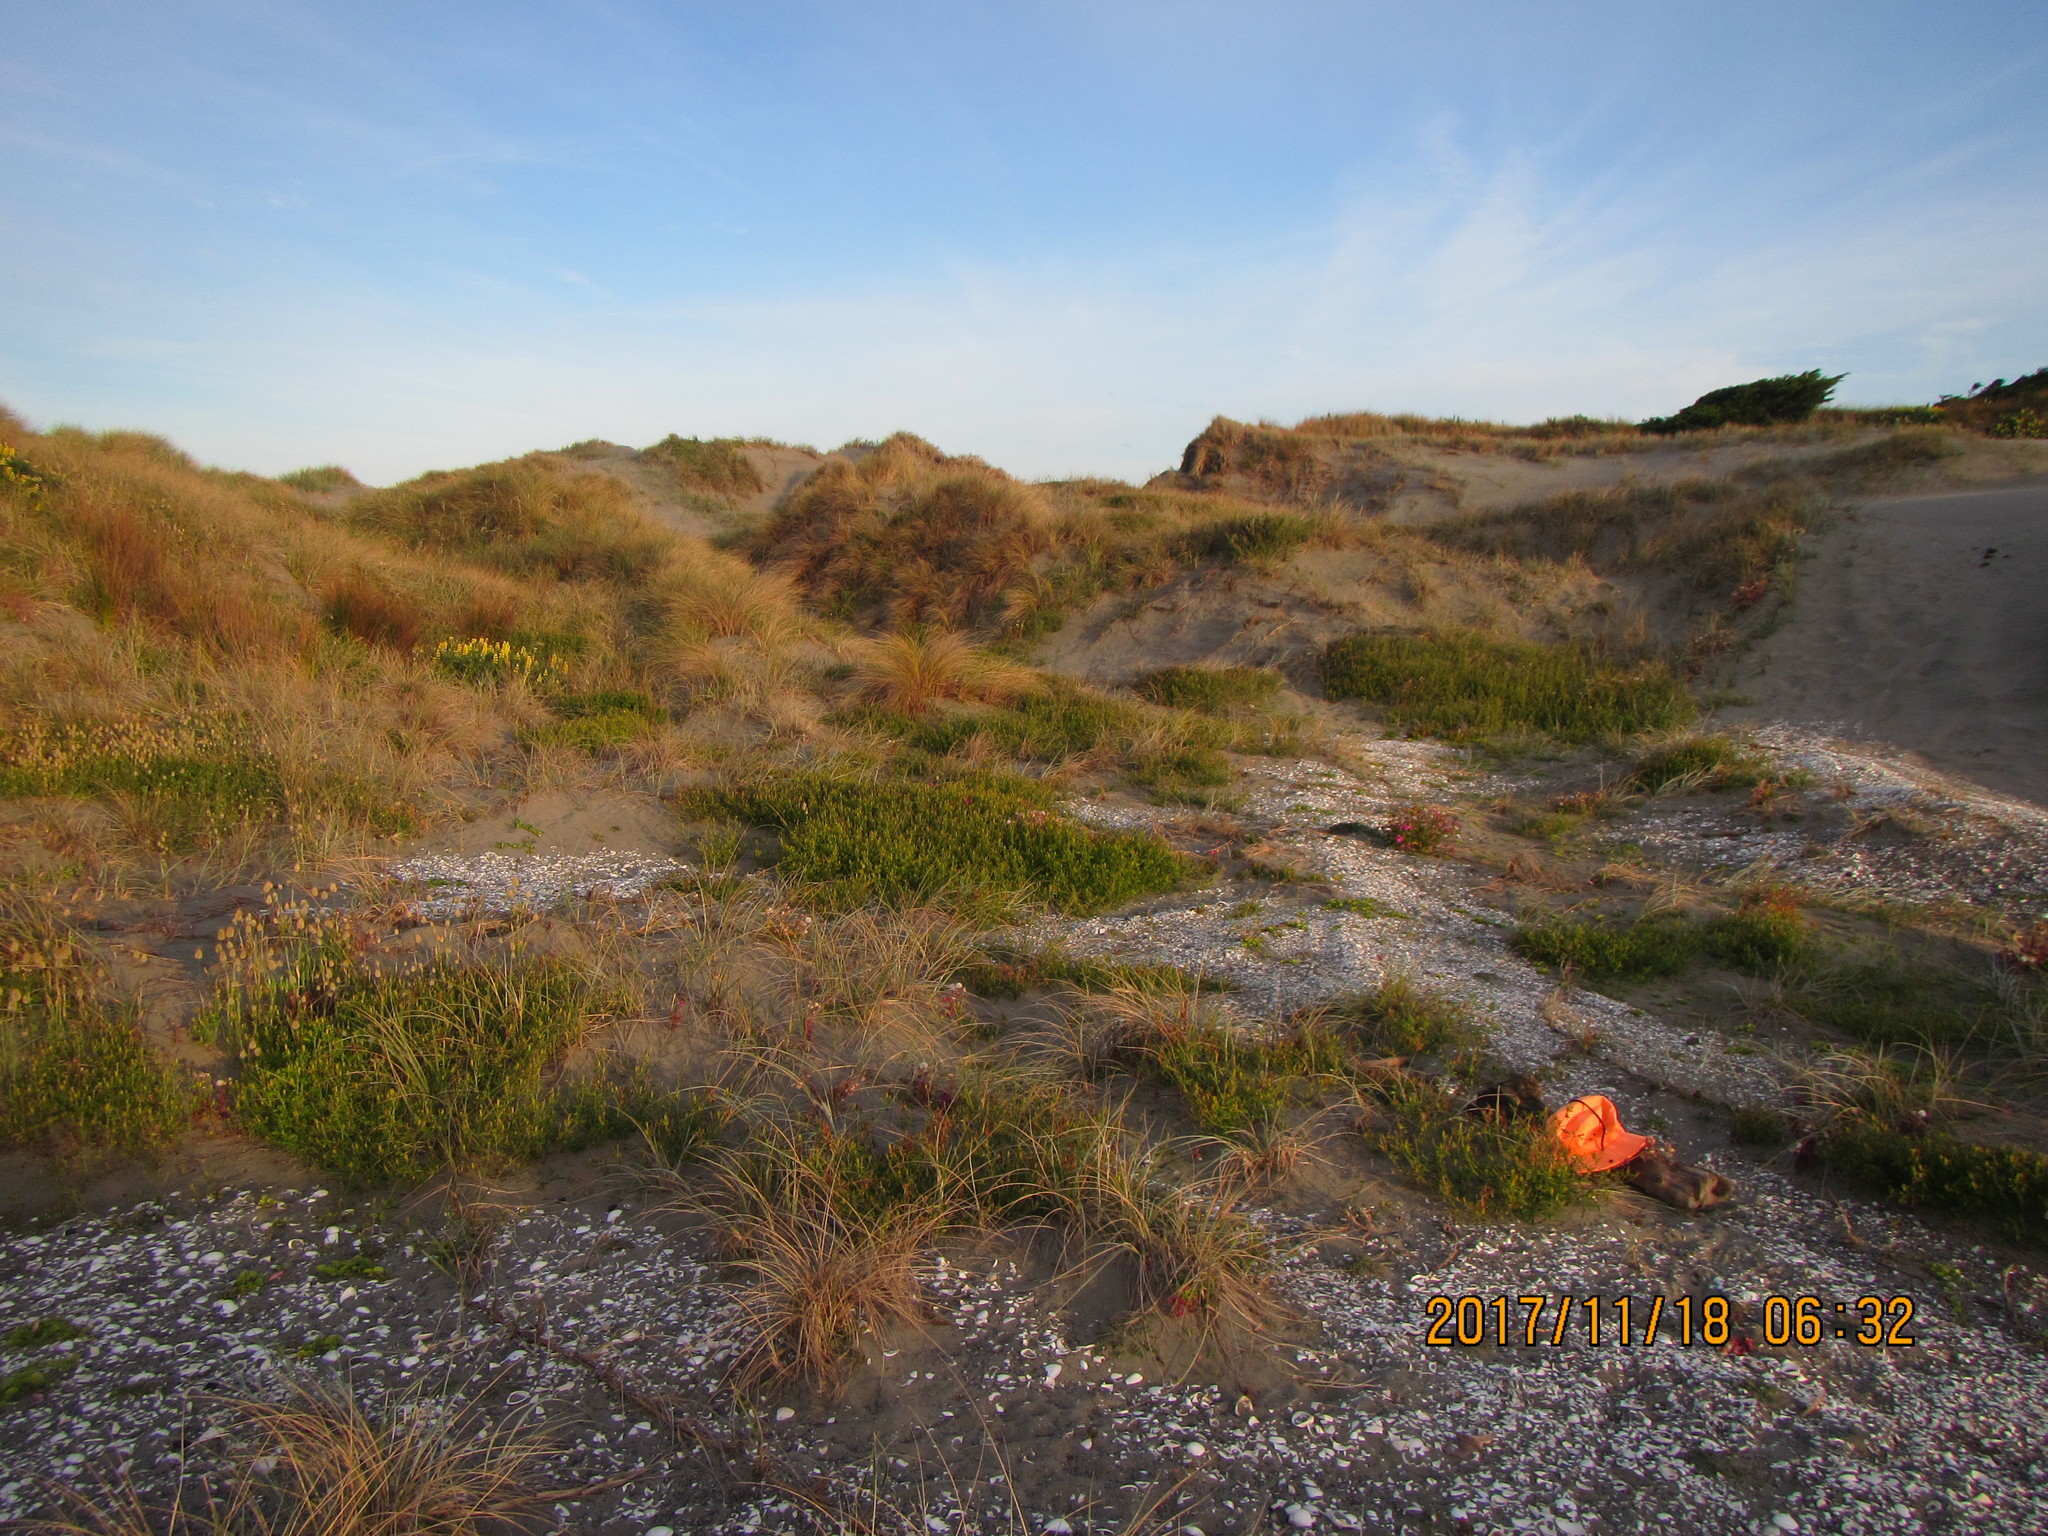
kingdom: Animalia
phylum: Arthropoda
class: Arachnida
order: Araneae
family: Salticidae
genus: Trite
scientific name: Trite auricoma
